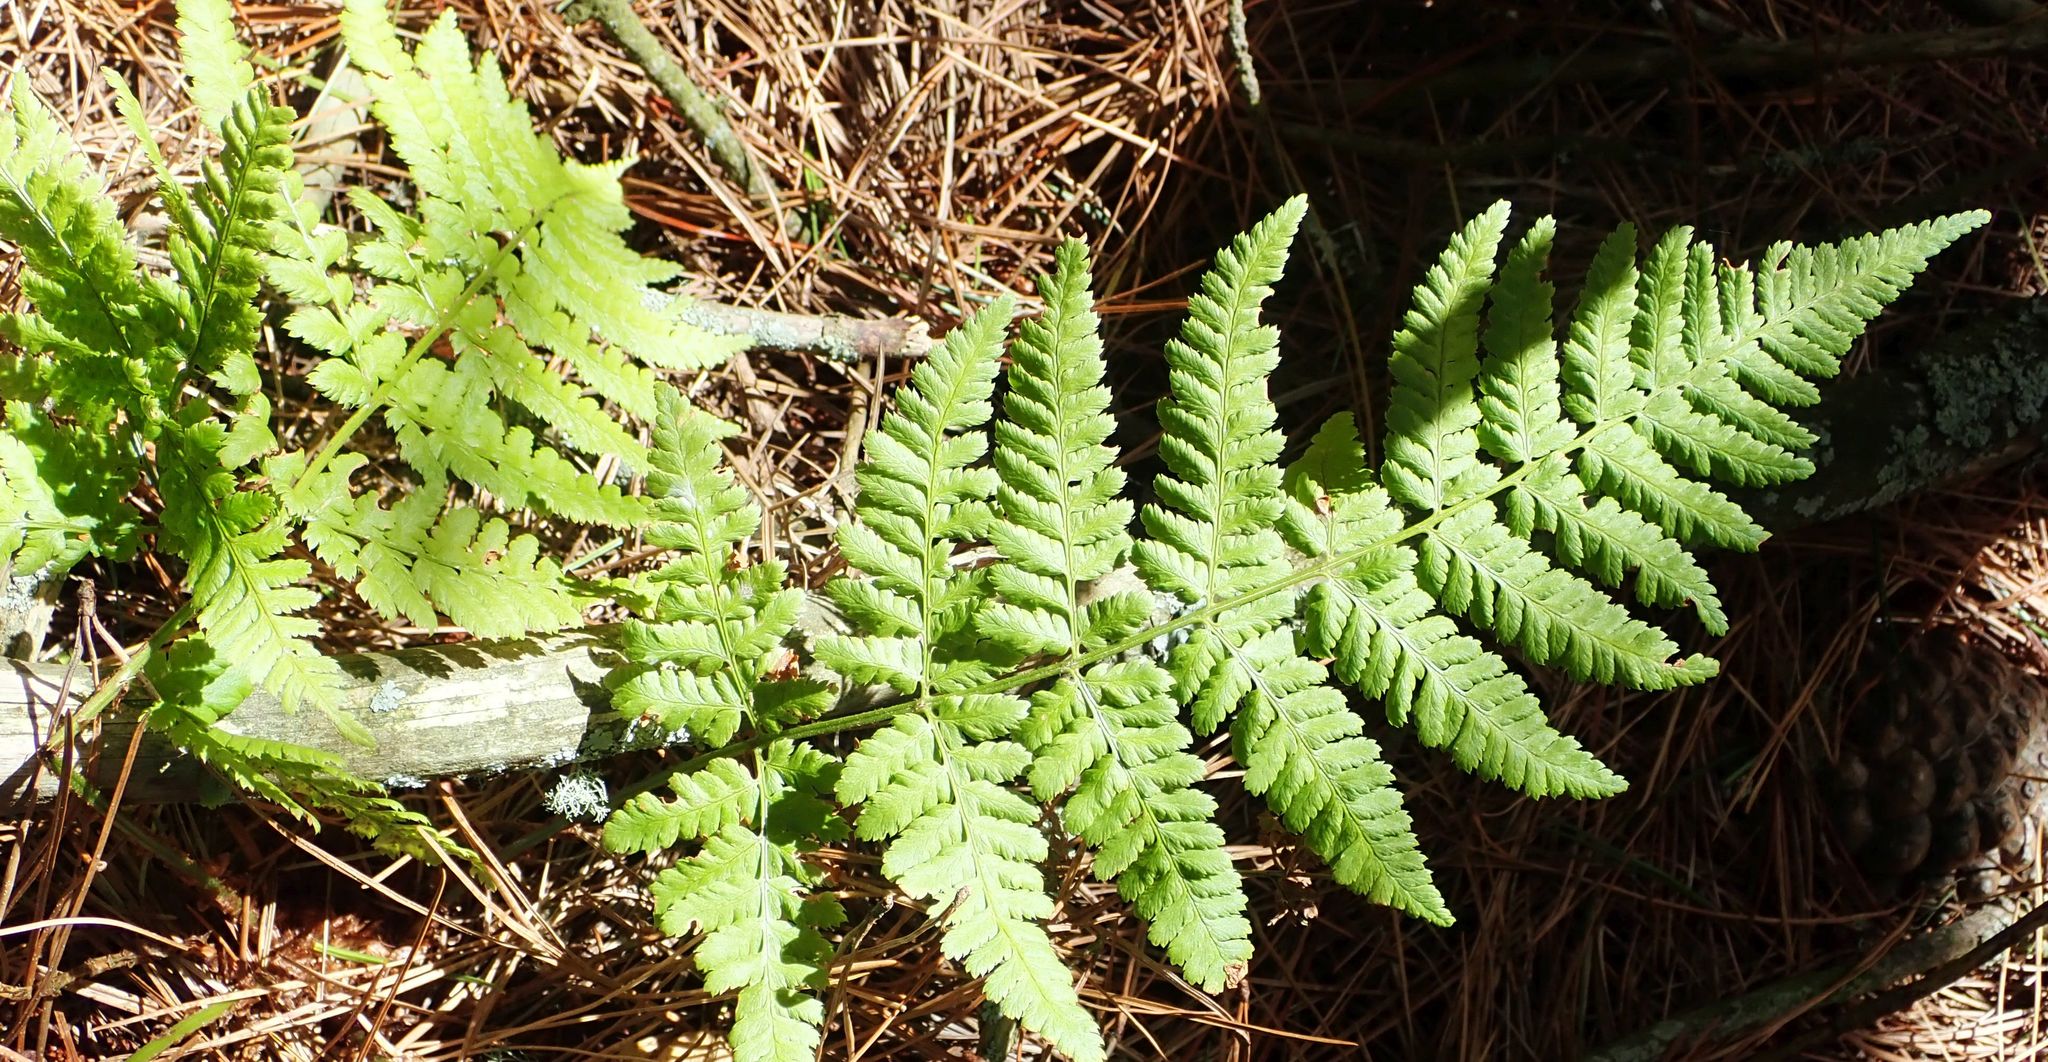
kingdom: Plantae
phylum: Tracheophyta
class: Polypodiopsida
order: Polypodiales
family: Dryopteridaceae
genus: Dryopteris
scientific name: Dryopteris dilatata
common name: Broad buckler-fern
